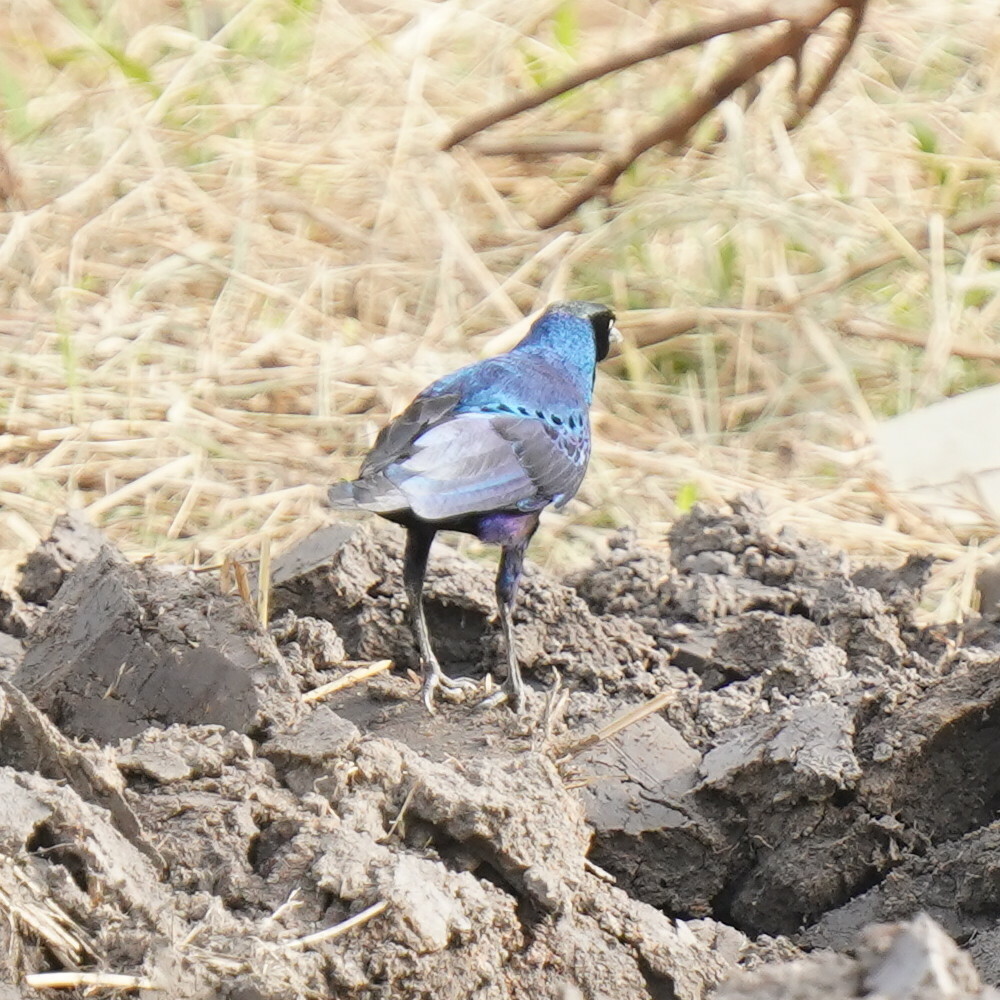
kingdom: Animalia
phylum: Chordata
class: Aves
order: Passeriformes
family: Sturnidae
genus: Lamprotornis
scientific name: Lamprotornis caudatus
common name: Long-tailed glossy starling
